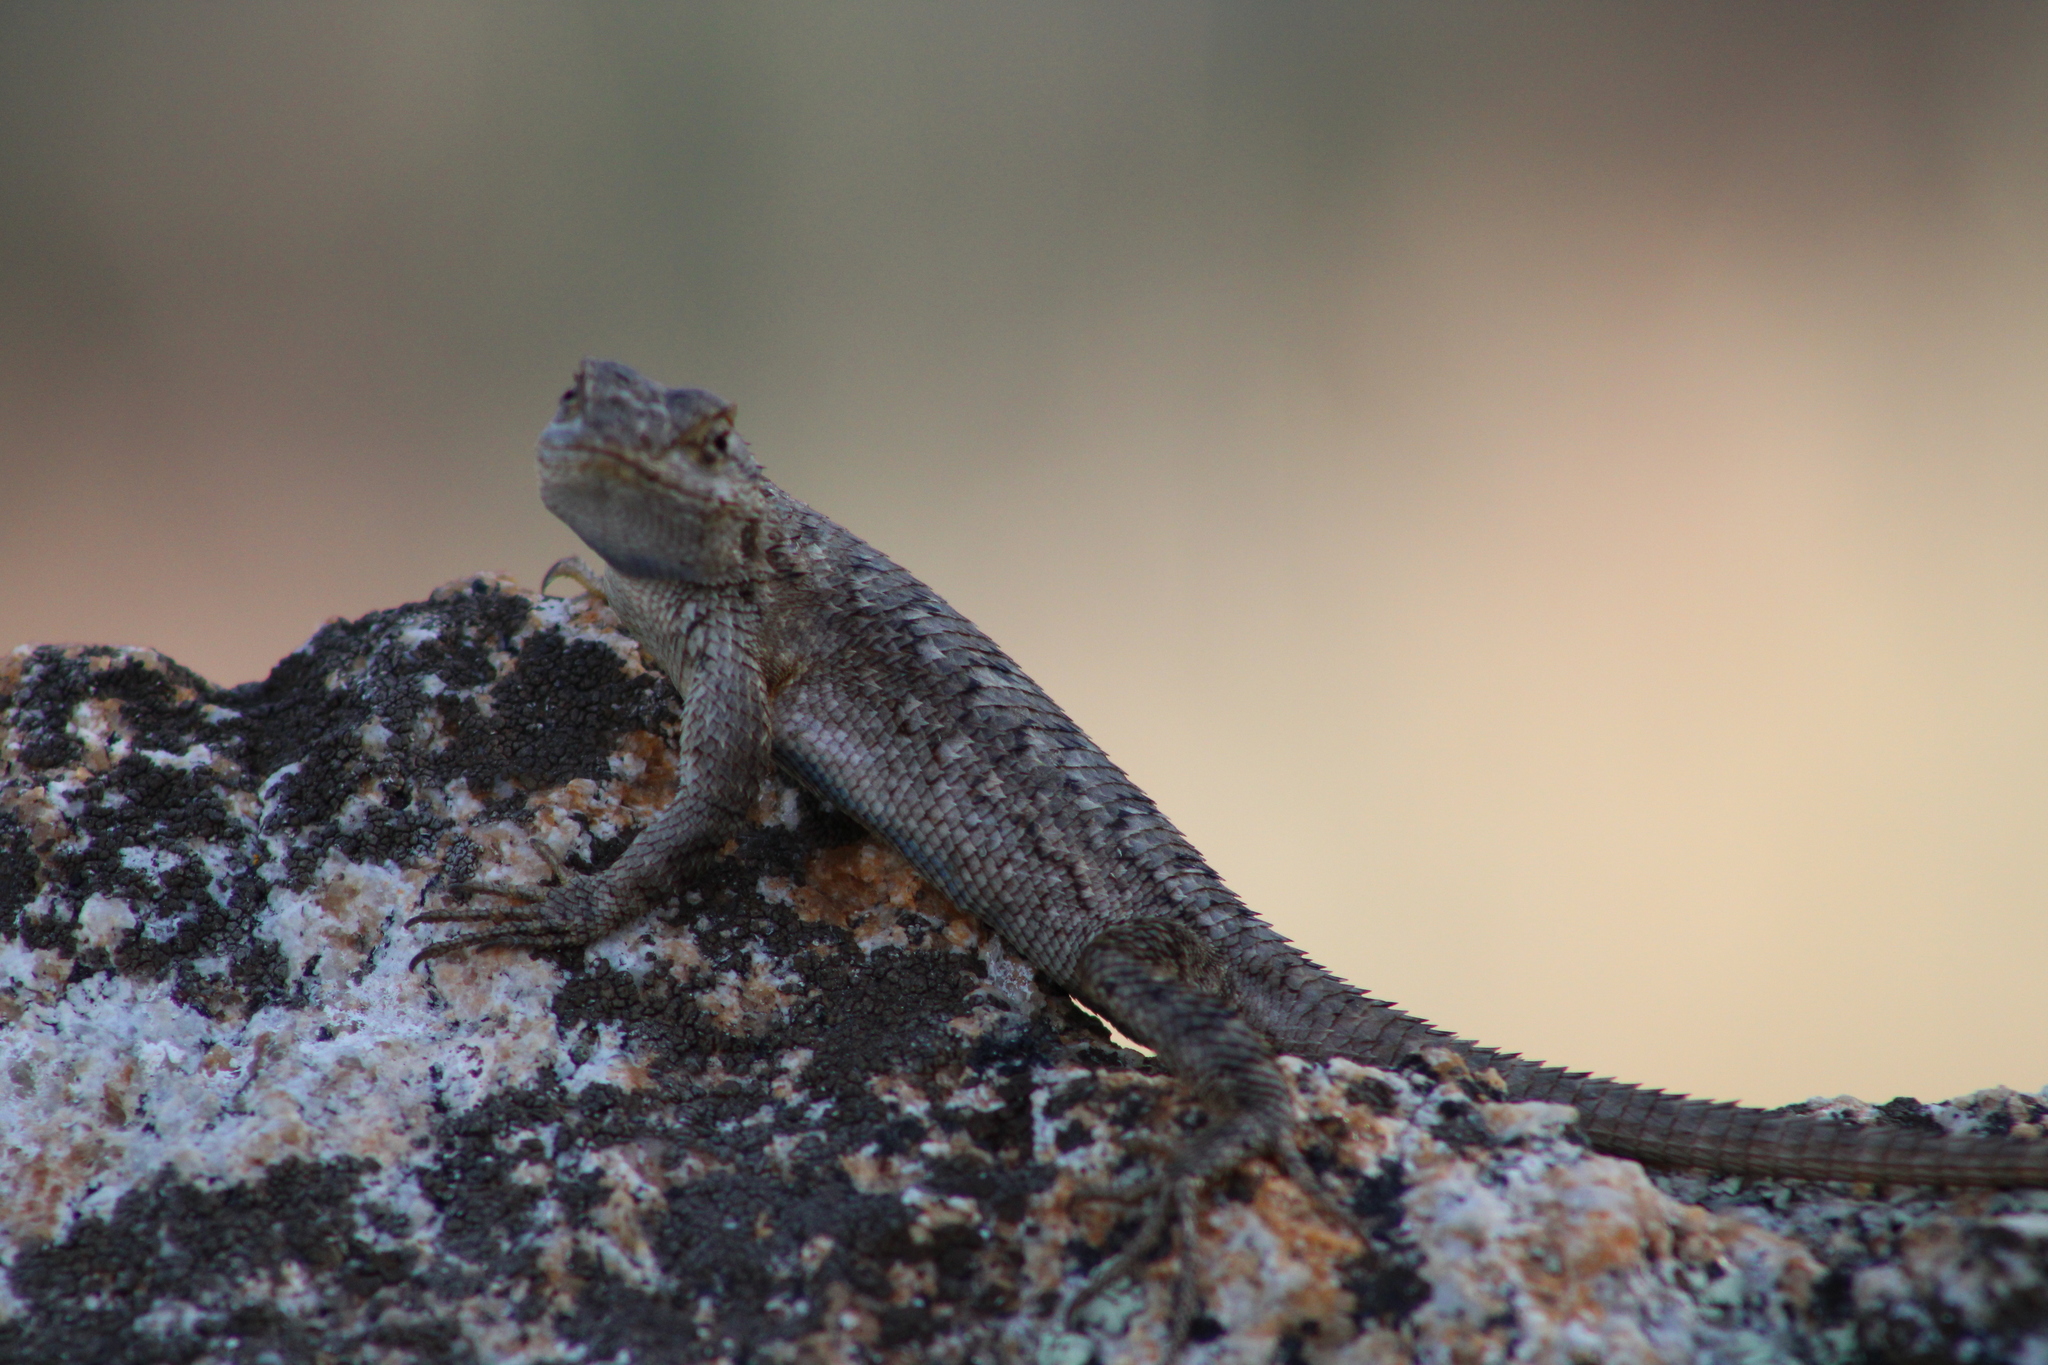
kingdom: Animalia
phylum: Chordata
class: Squamata
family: Phrynosomatidae
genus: Sceloporus
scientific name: Sceloporus occidentalis
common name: Western fence lizard
